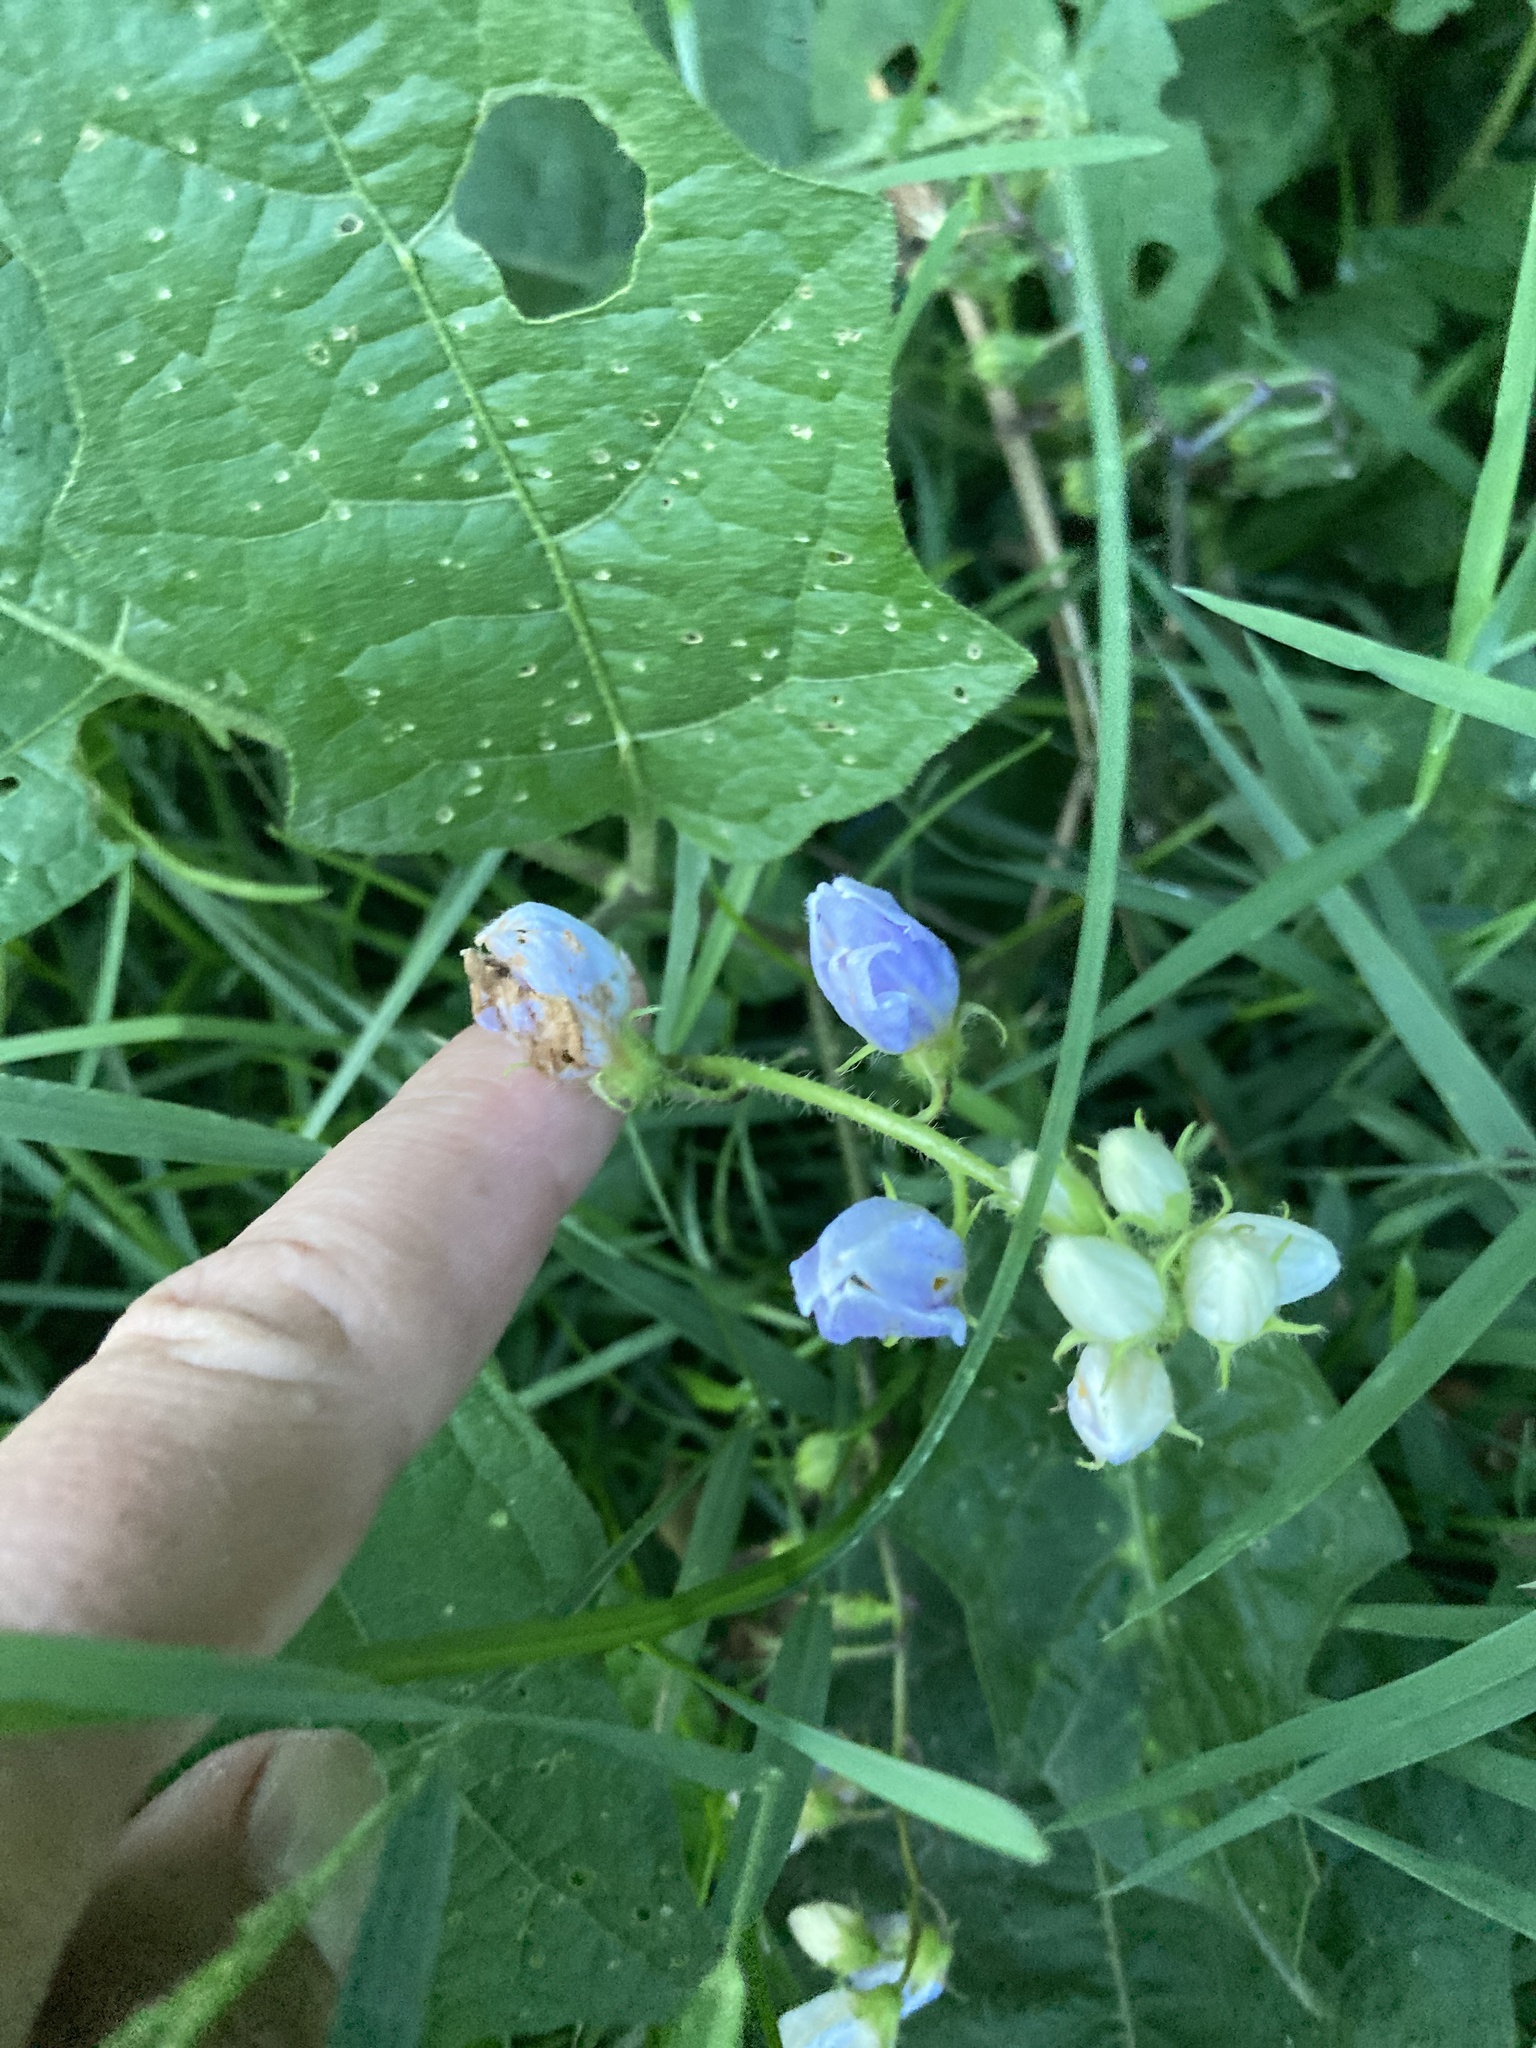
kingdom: Plantae
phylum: Tracheophyta
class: Magnoliopsida
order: Solanales
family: Solanaceae
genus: Solanum
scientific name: Solanum carolinense
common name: Horse-nettle
